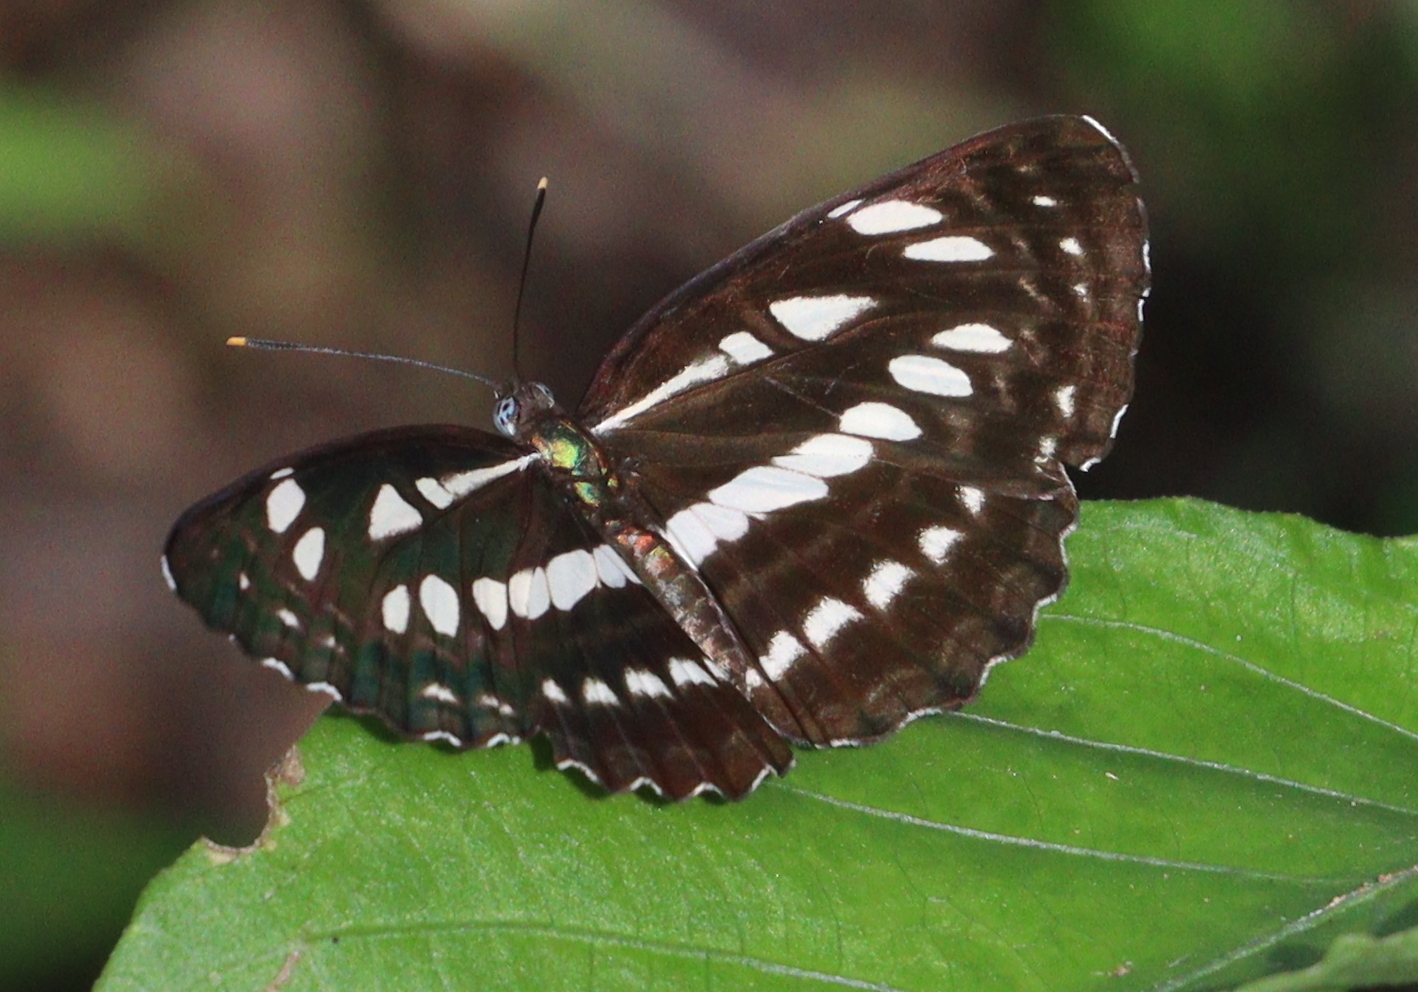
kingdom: Animalia
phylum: Arthropoda
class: Insecta
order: Lepidoptera
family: Nymphalidae
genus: Neptis
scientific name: Neptis hylas
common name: Common sailer
